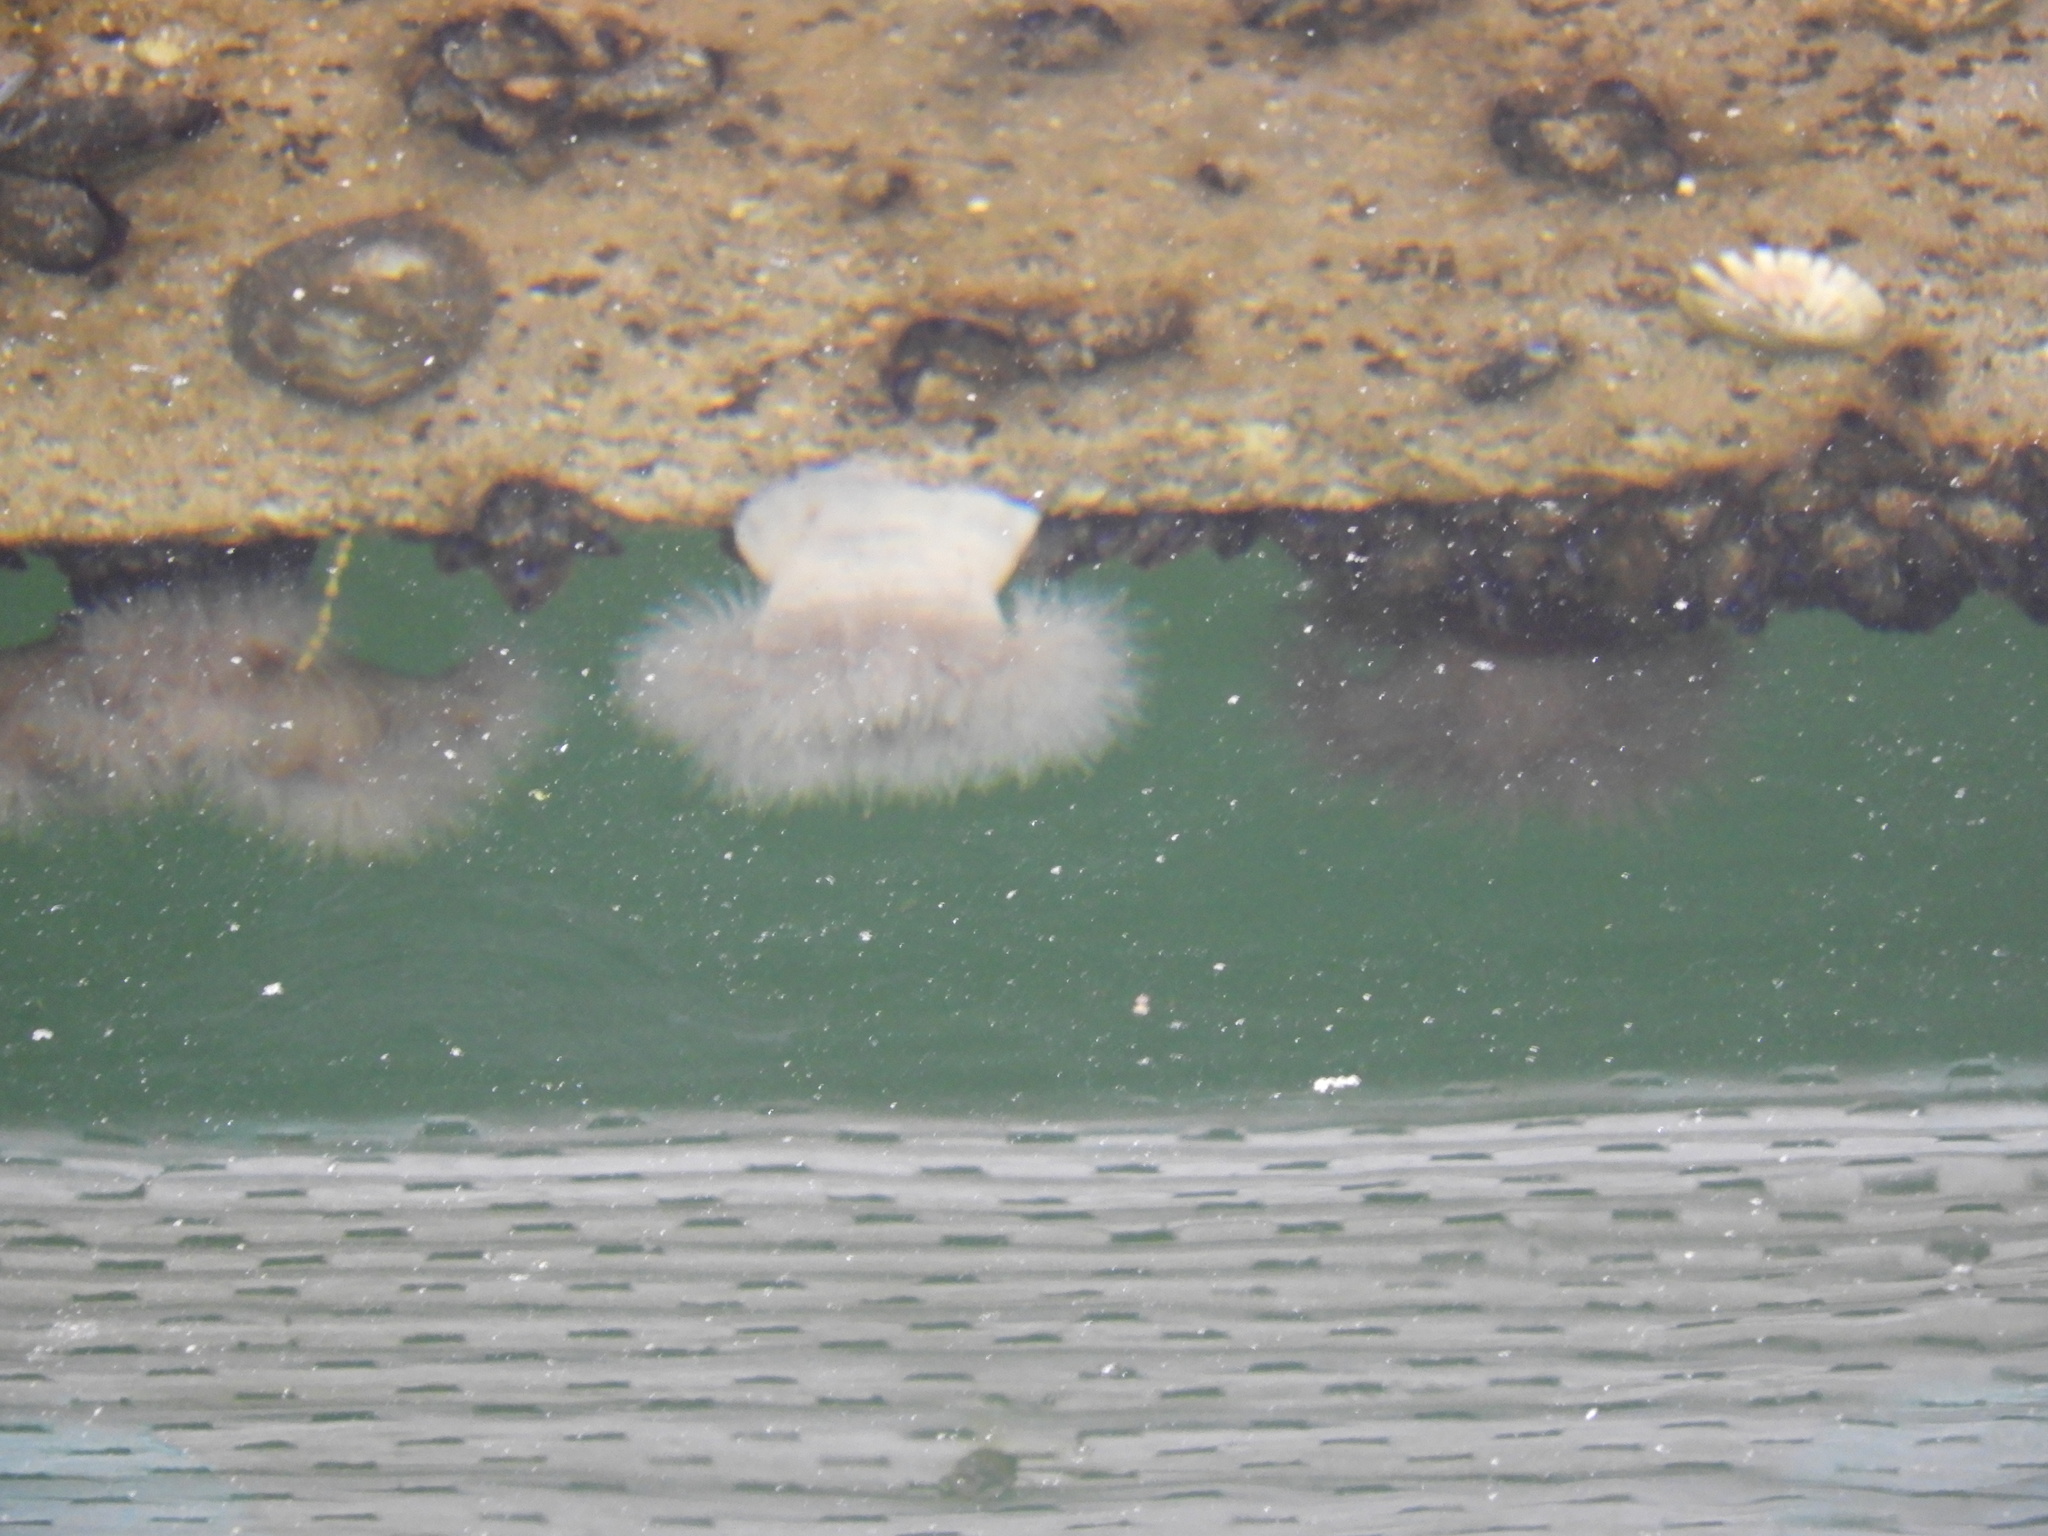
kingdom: Animalia
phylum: Cnidaria
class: Anthozoa
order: Actiniaria
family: Metridiidae
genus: Metridium
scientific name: Metridium senile
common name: Clonal plumose anemone
